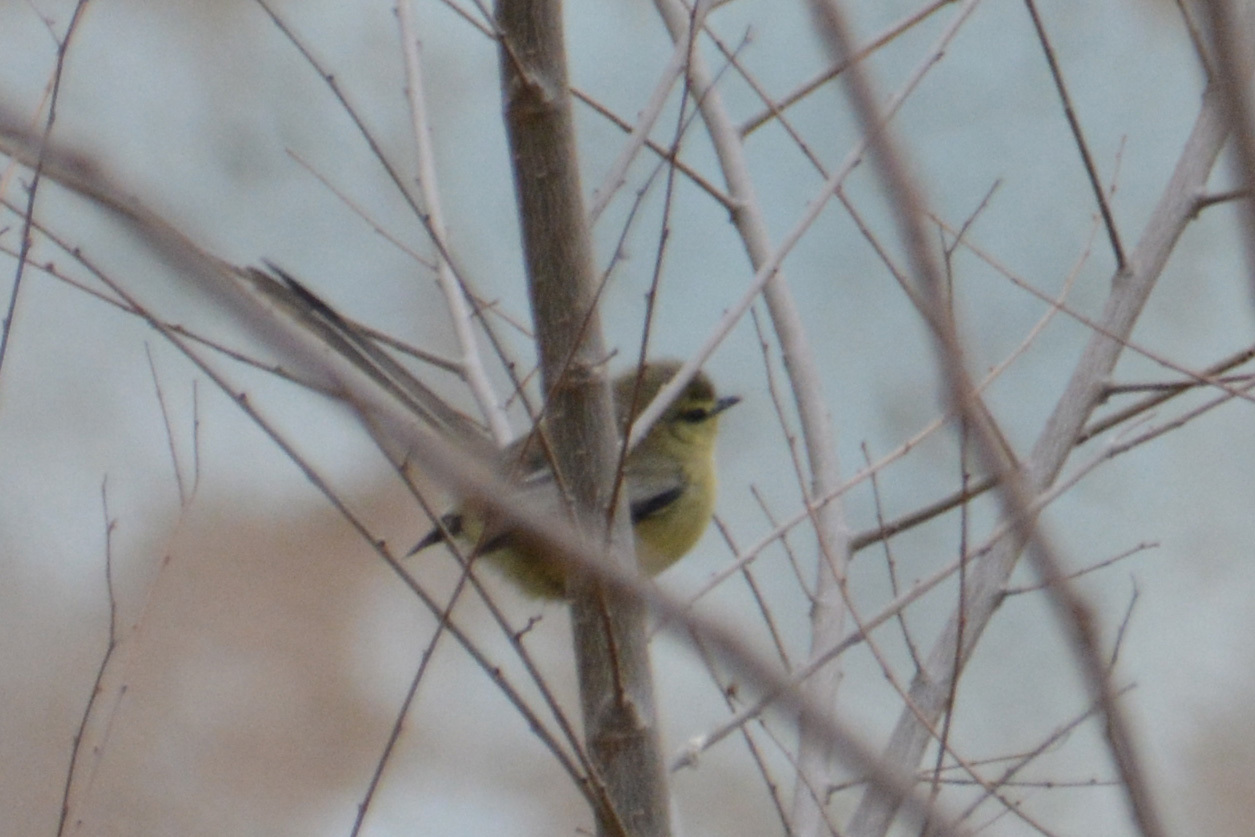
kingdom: Animalia
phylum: Chordata
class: Aves
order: Passeriformes
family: Tyrannidae
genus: Stigmatura
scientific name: Stigmatura budytoides
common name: Greater wagtail-tyrant
